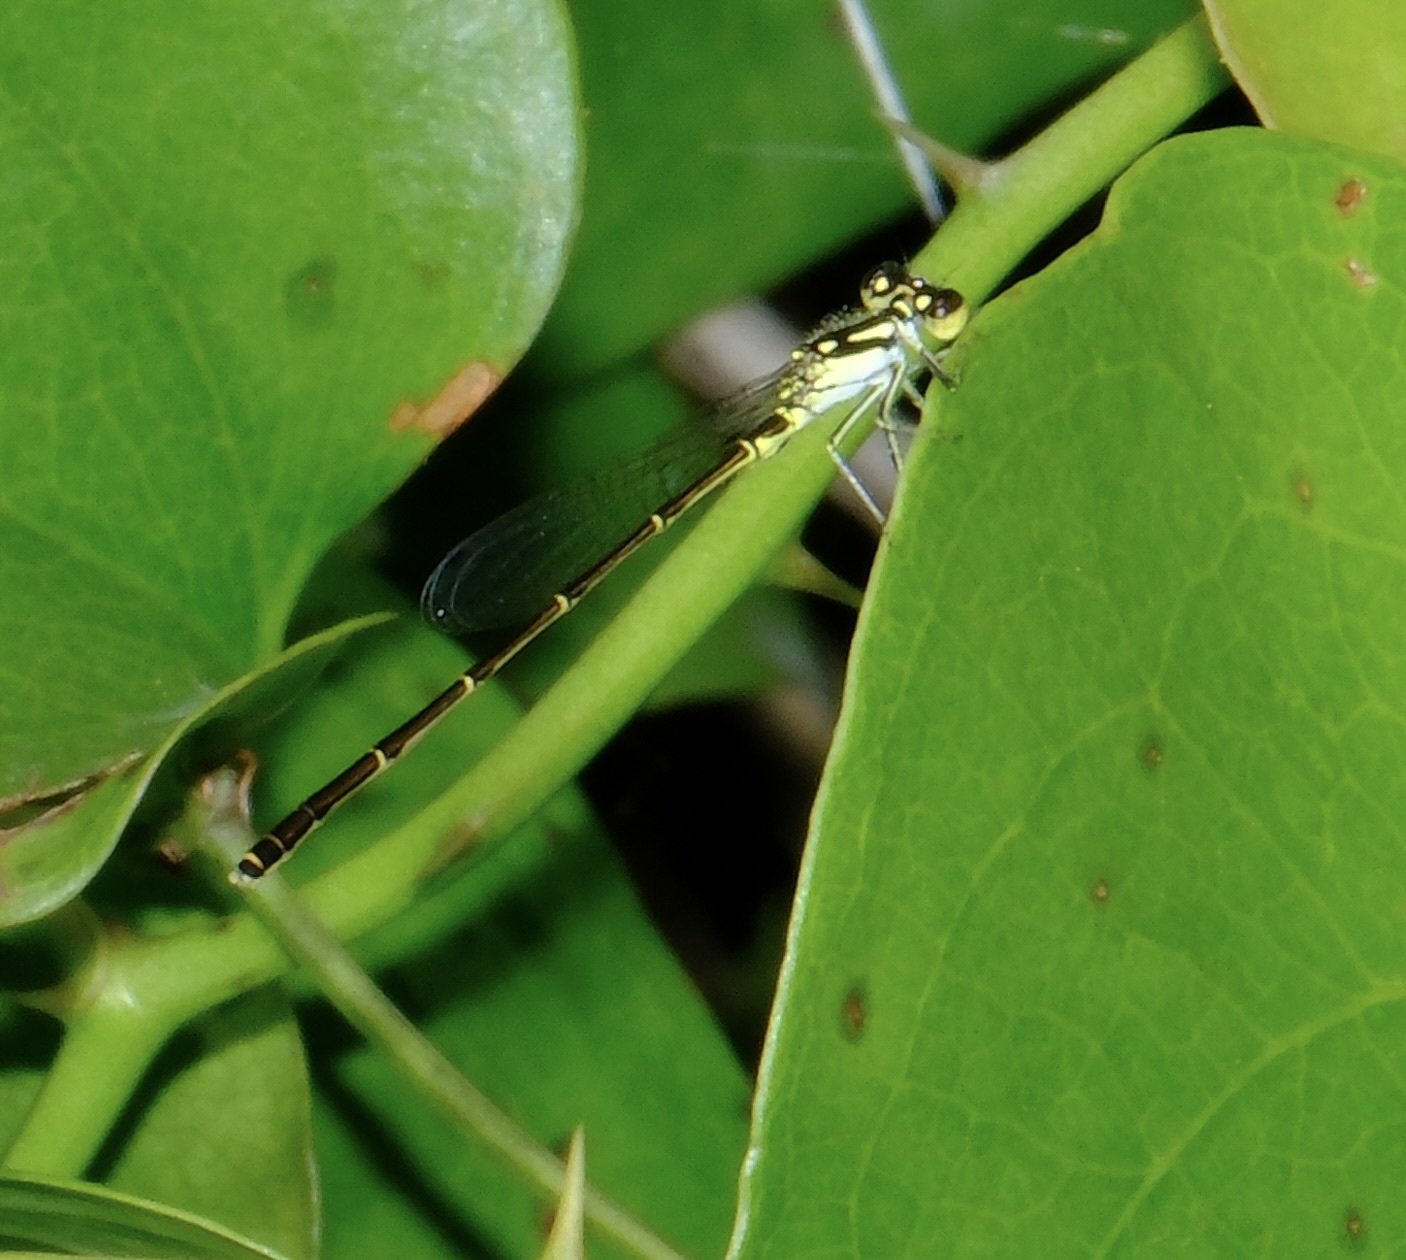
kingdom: Animalia
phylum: Arthropoda
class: Insecta
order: Odonata
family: Coenagrionidae
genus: Ischnura
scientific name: Ischnura posita
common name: Fragile forktail
